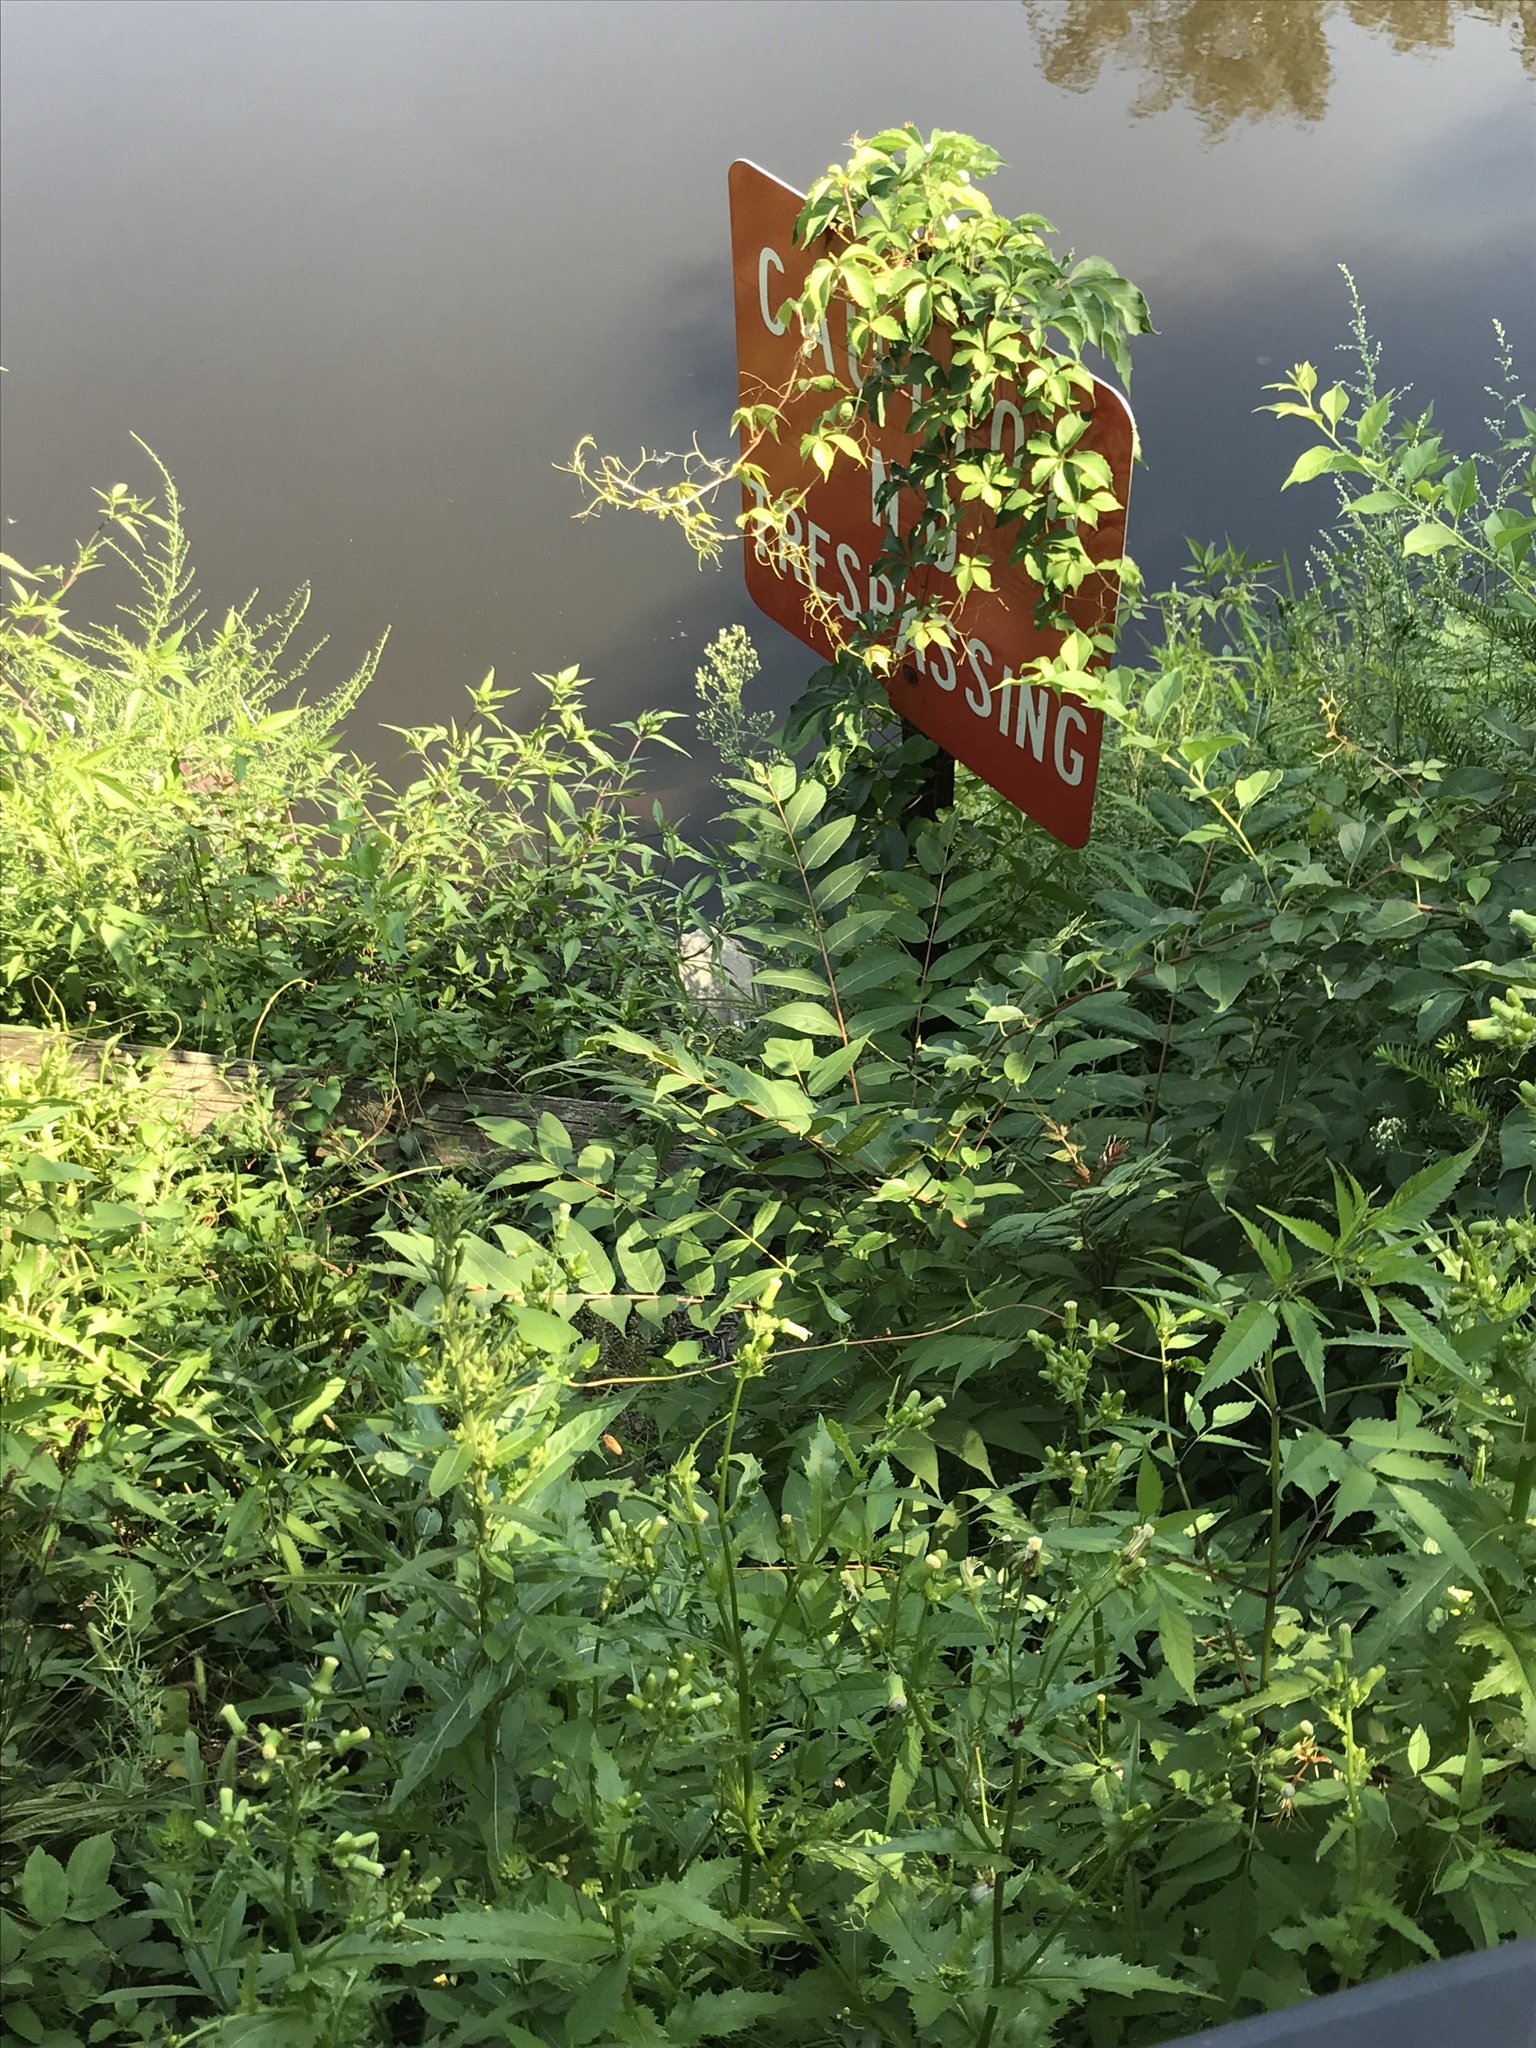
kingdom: Plantae
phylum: Tracheophyta
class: Magnoliopsida
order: Sapindales
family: Simaroubaceae
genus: Ailanthus
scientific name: Ailanthus altissima
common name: Tree-of-heaven
